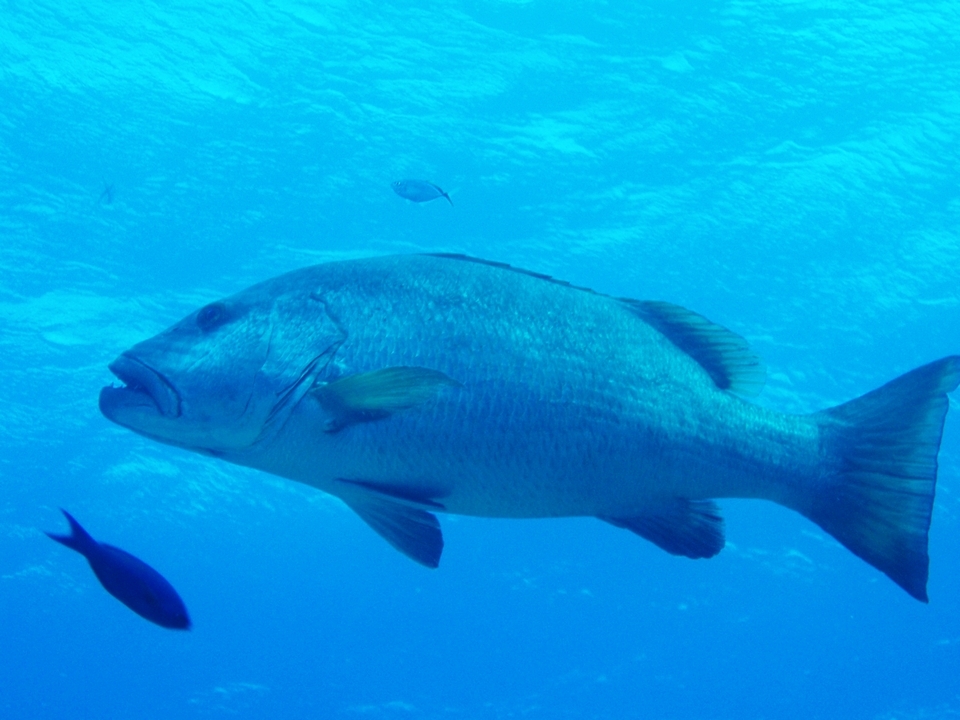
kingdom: Animalia
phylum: Chordata
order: Perciformes
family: Lutjanidae
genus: Lutjanus
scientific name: Lutjanus cyanopterus
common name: Cubera snapper
